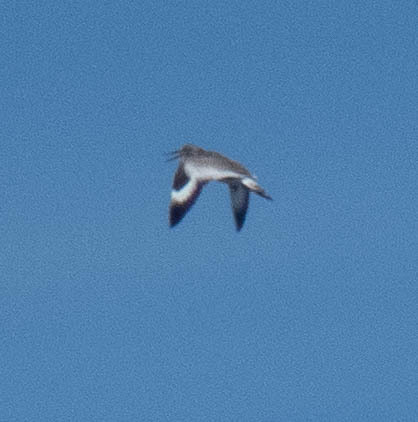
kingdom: Animalia
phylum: Chordata
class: Aves
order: Charadriiformes
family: Scolopacidae
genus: Tringa
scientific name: Tringa semipalmata
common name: Willet
